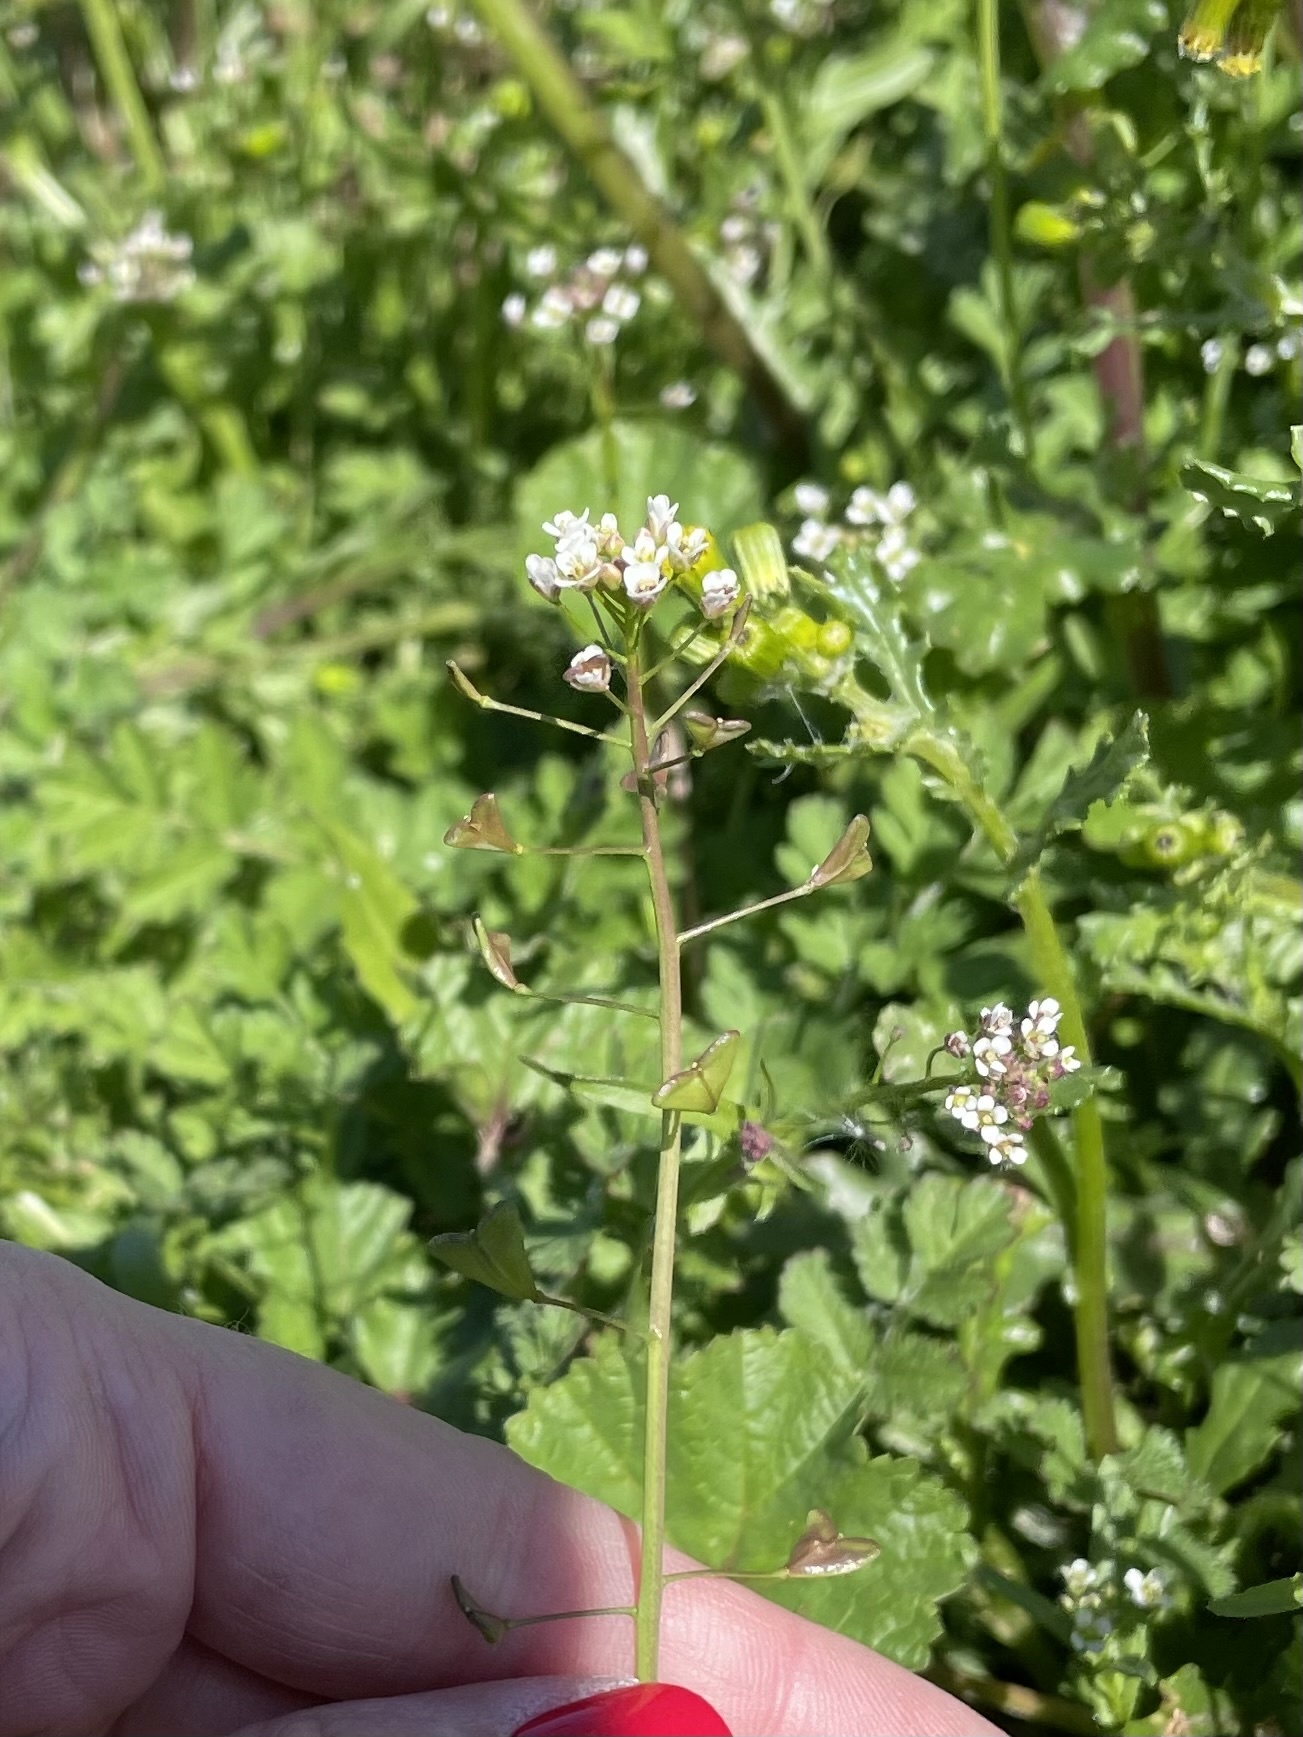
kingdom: Plantae
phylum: Tracheophyta
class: Magnoliopsida
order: Brassicales
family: Brassicaceae
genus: Capsella
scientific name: Capsella bursa-pastoris
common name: Shepherd's purse
